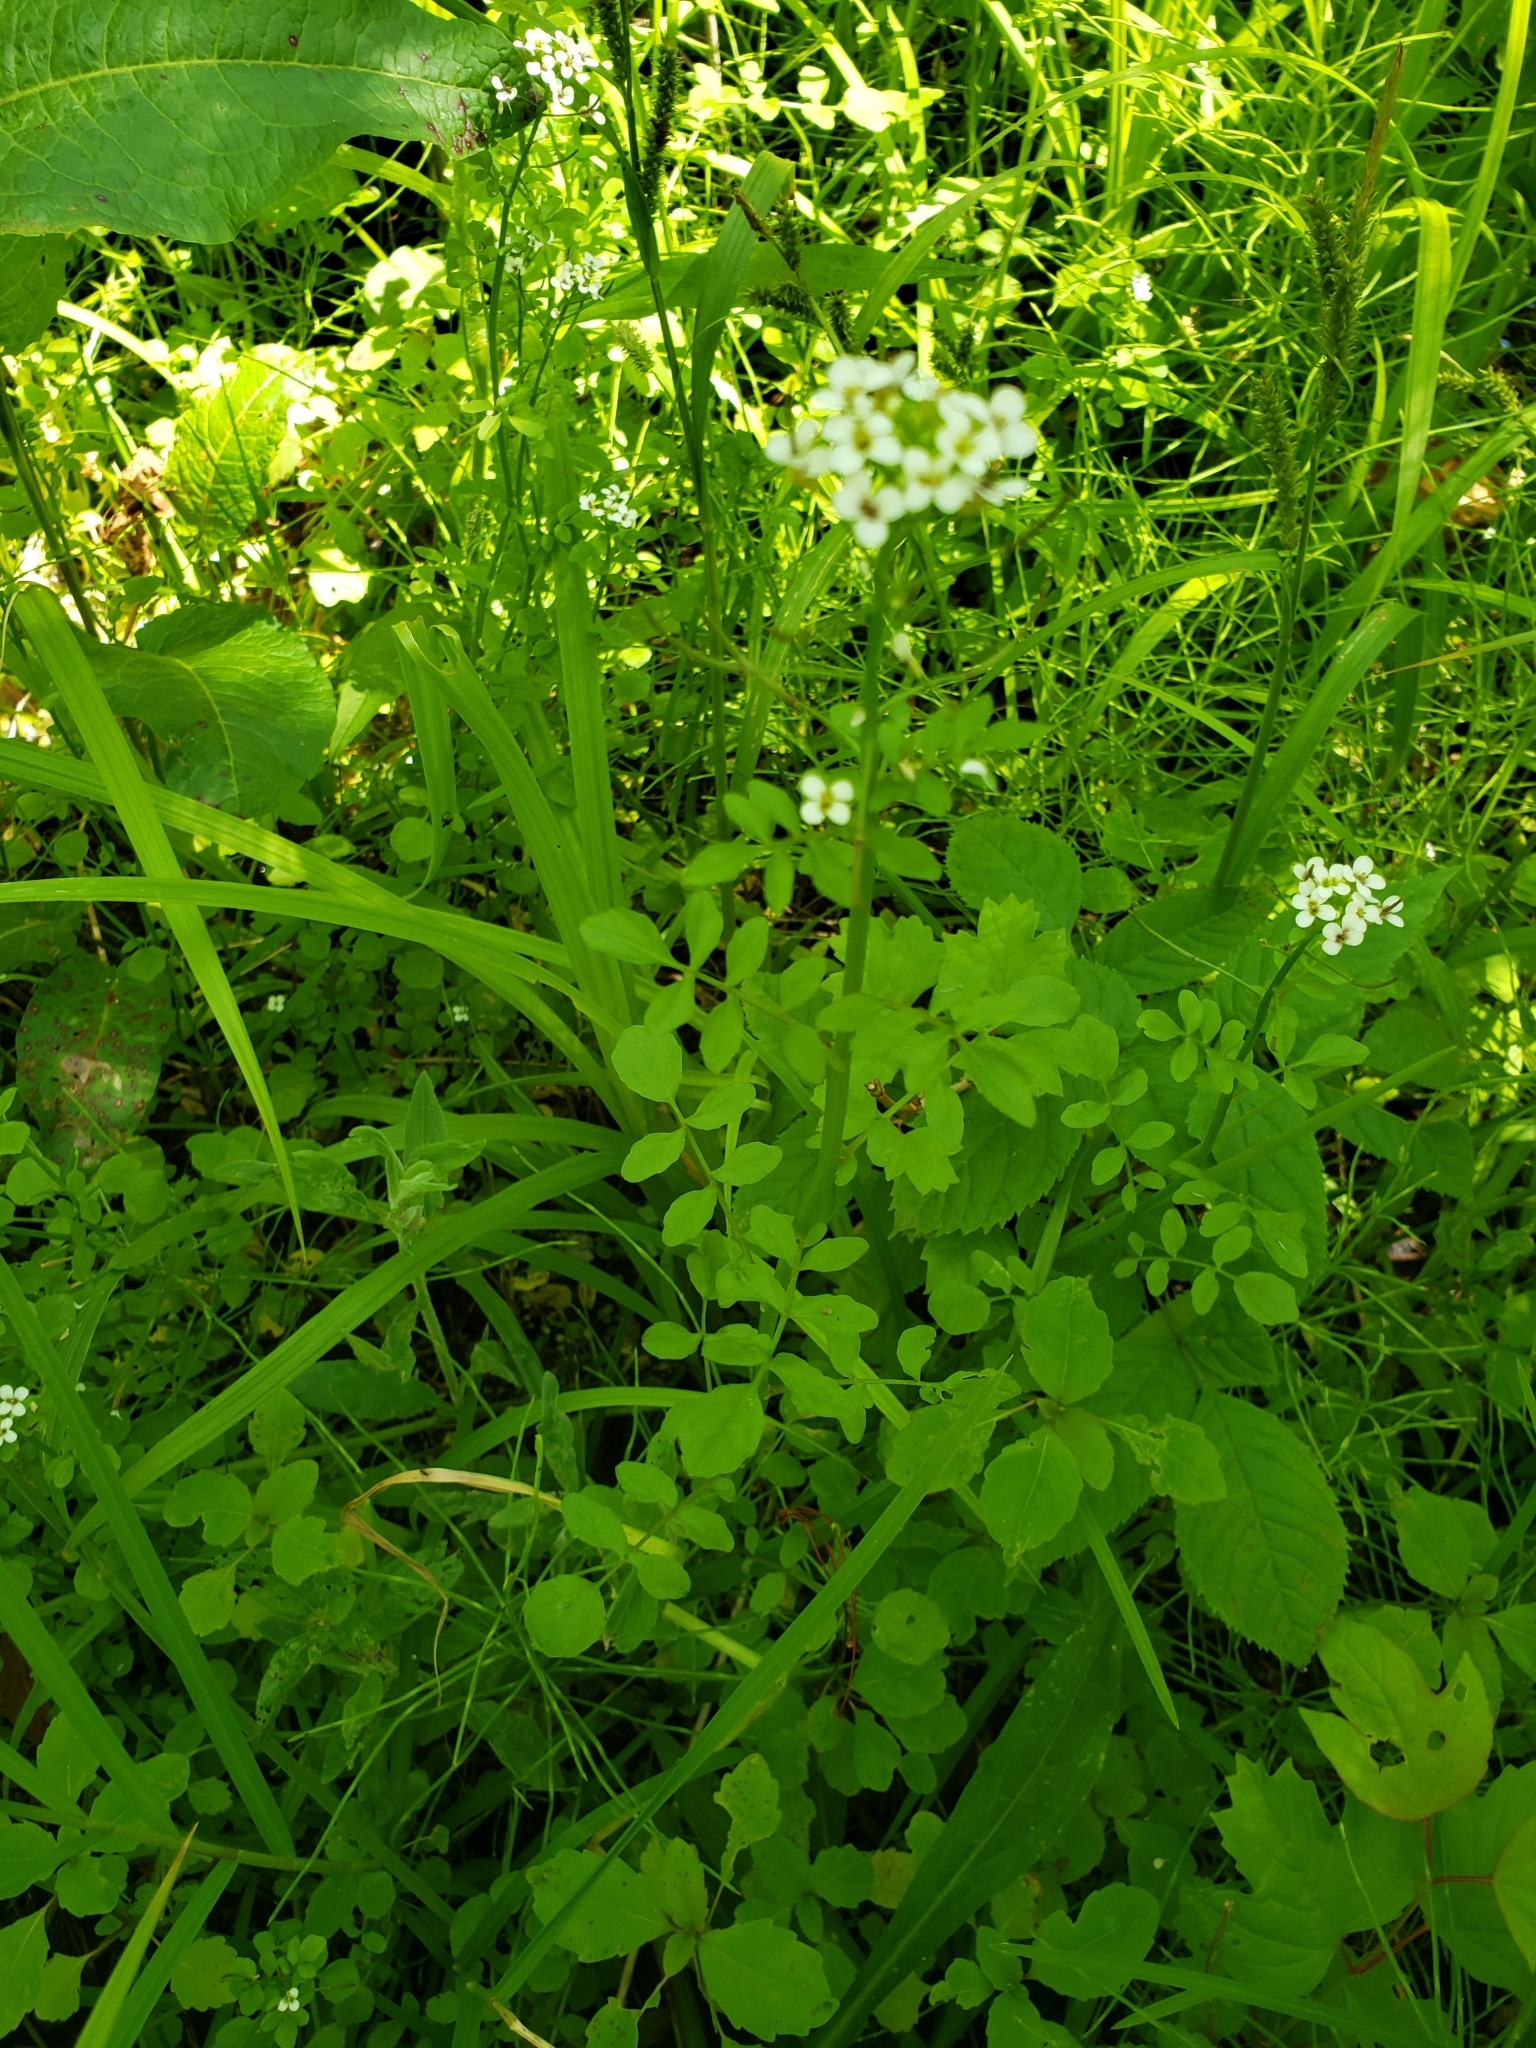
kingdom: Plantae
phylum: Tracheophyta
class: Magnoliopsida
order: Brassicales
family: Brassicaceae
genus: Cardamine
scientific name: Cardamine pensylvanica
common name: Pennsylvania bittercress
